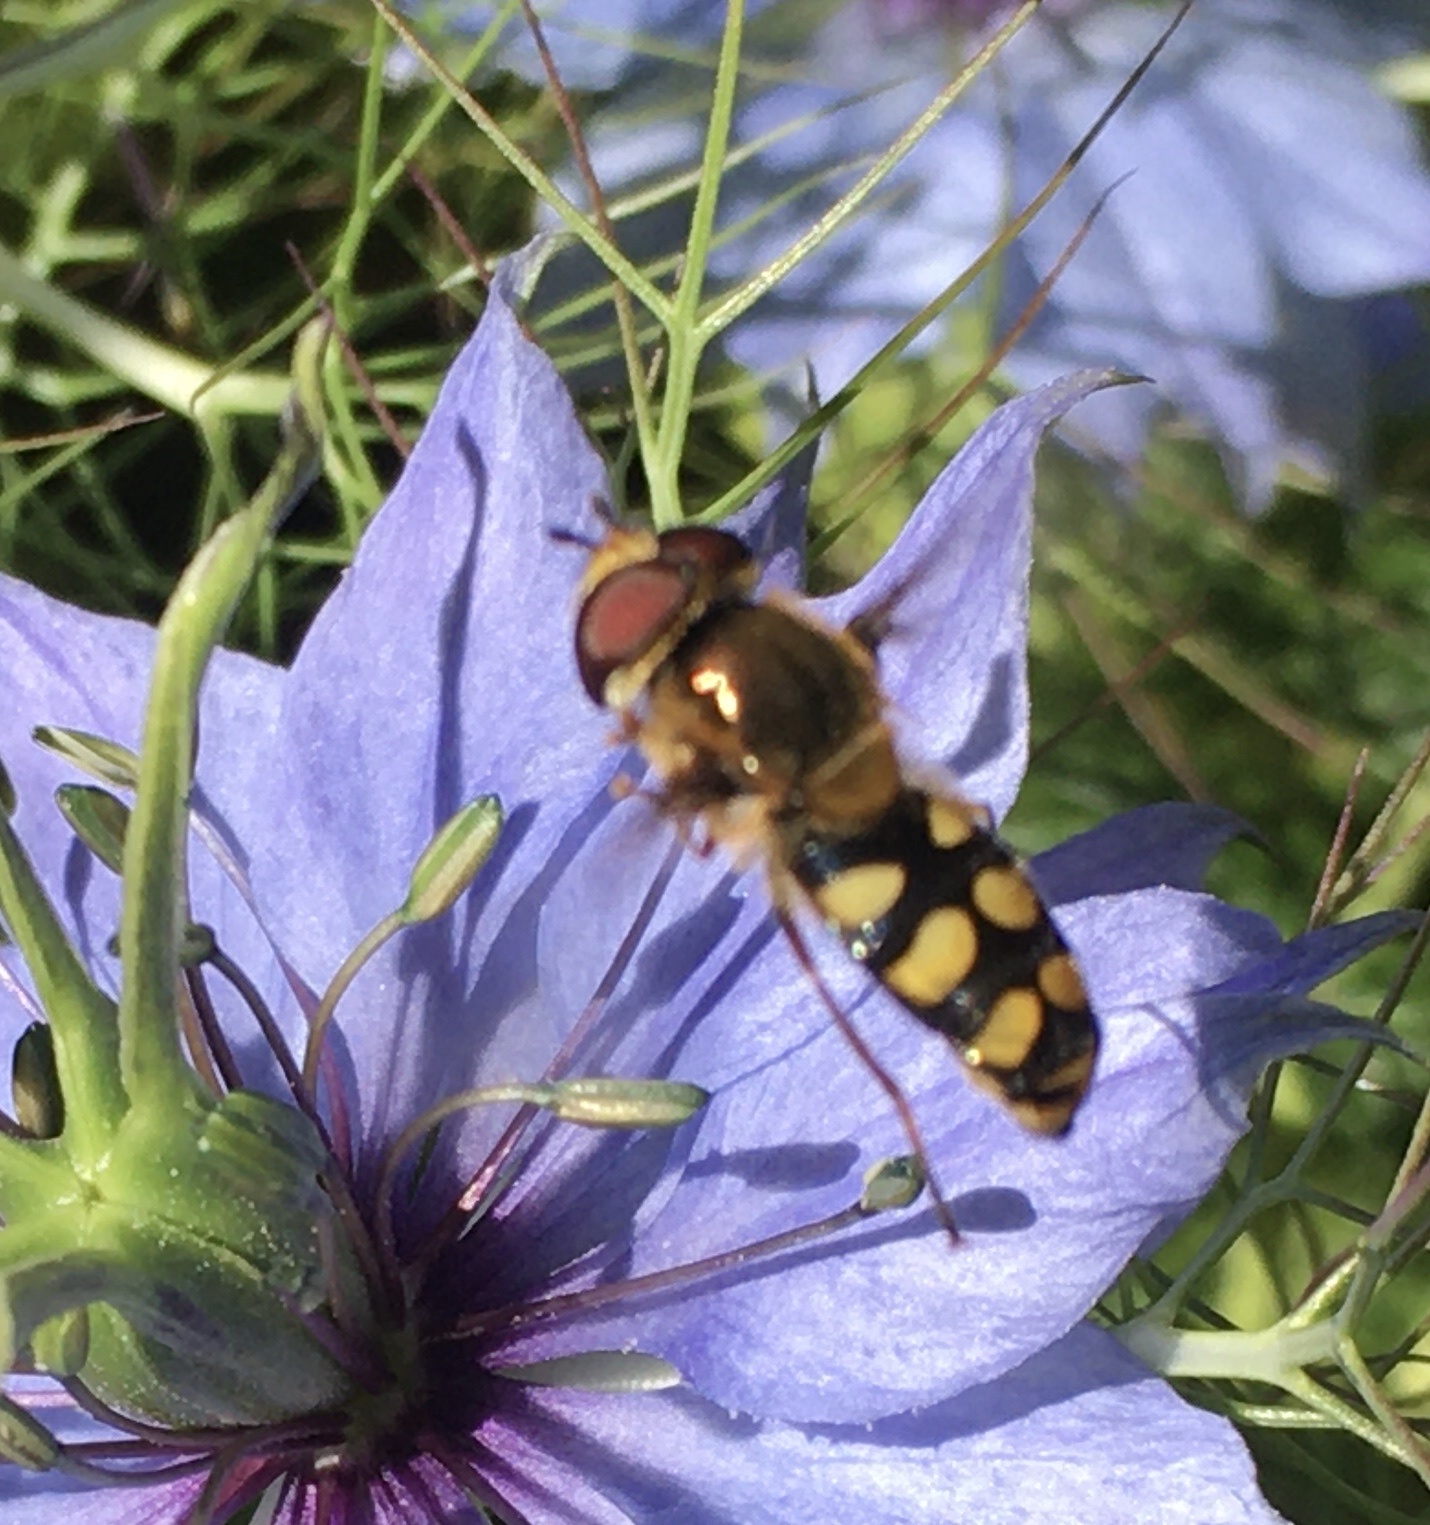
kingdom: Animalia
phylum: Arthropoda
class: Insecta
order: Diptera
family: Syrphidae
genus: Eupeodes
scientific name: Eupeodes
